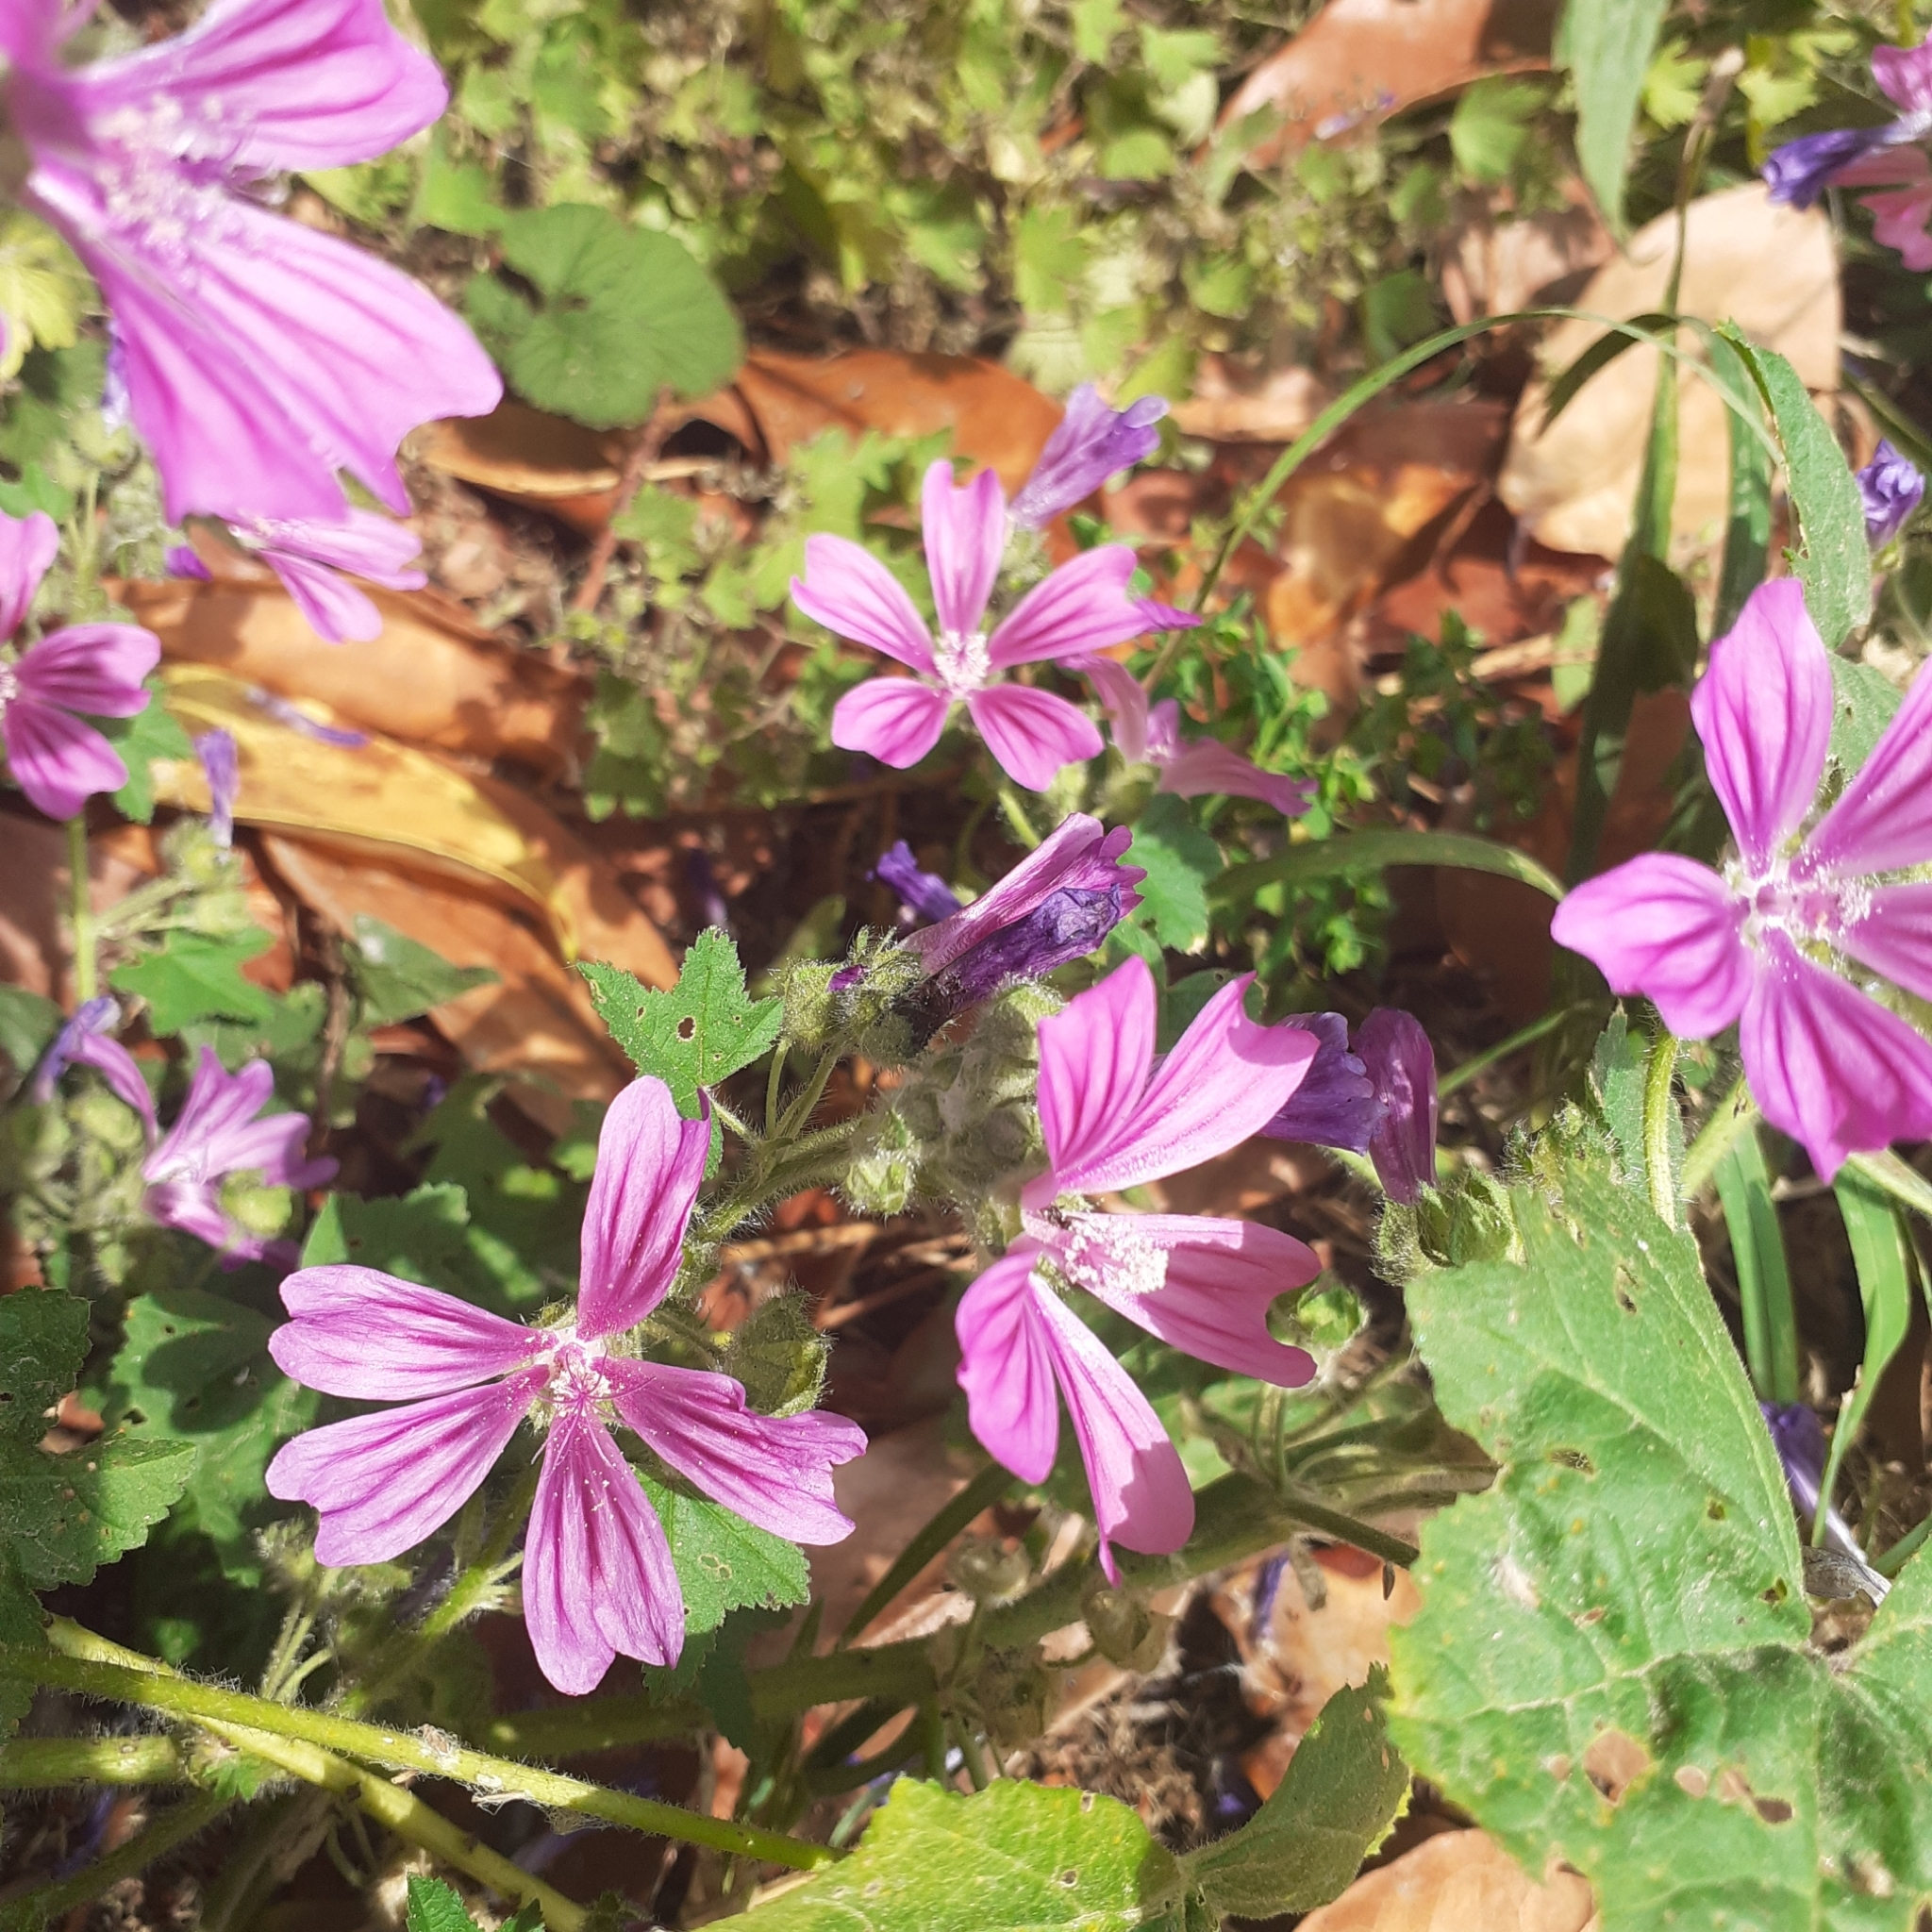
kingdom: Plantae
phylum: Tracheophyta
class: Magnoliopsida
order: Malvales
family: Malvaceae
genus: Malva
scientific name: Malva sylvestris
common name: Common mallow
